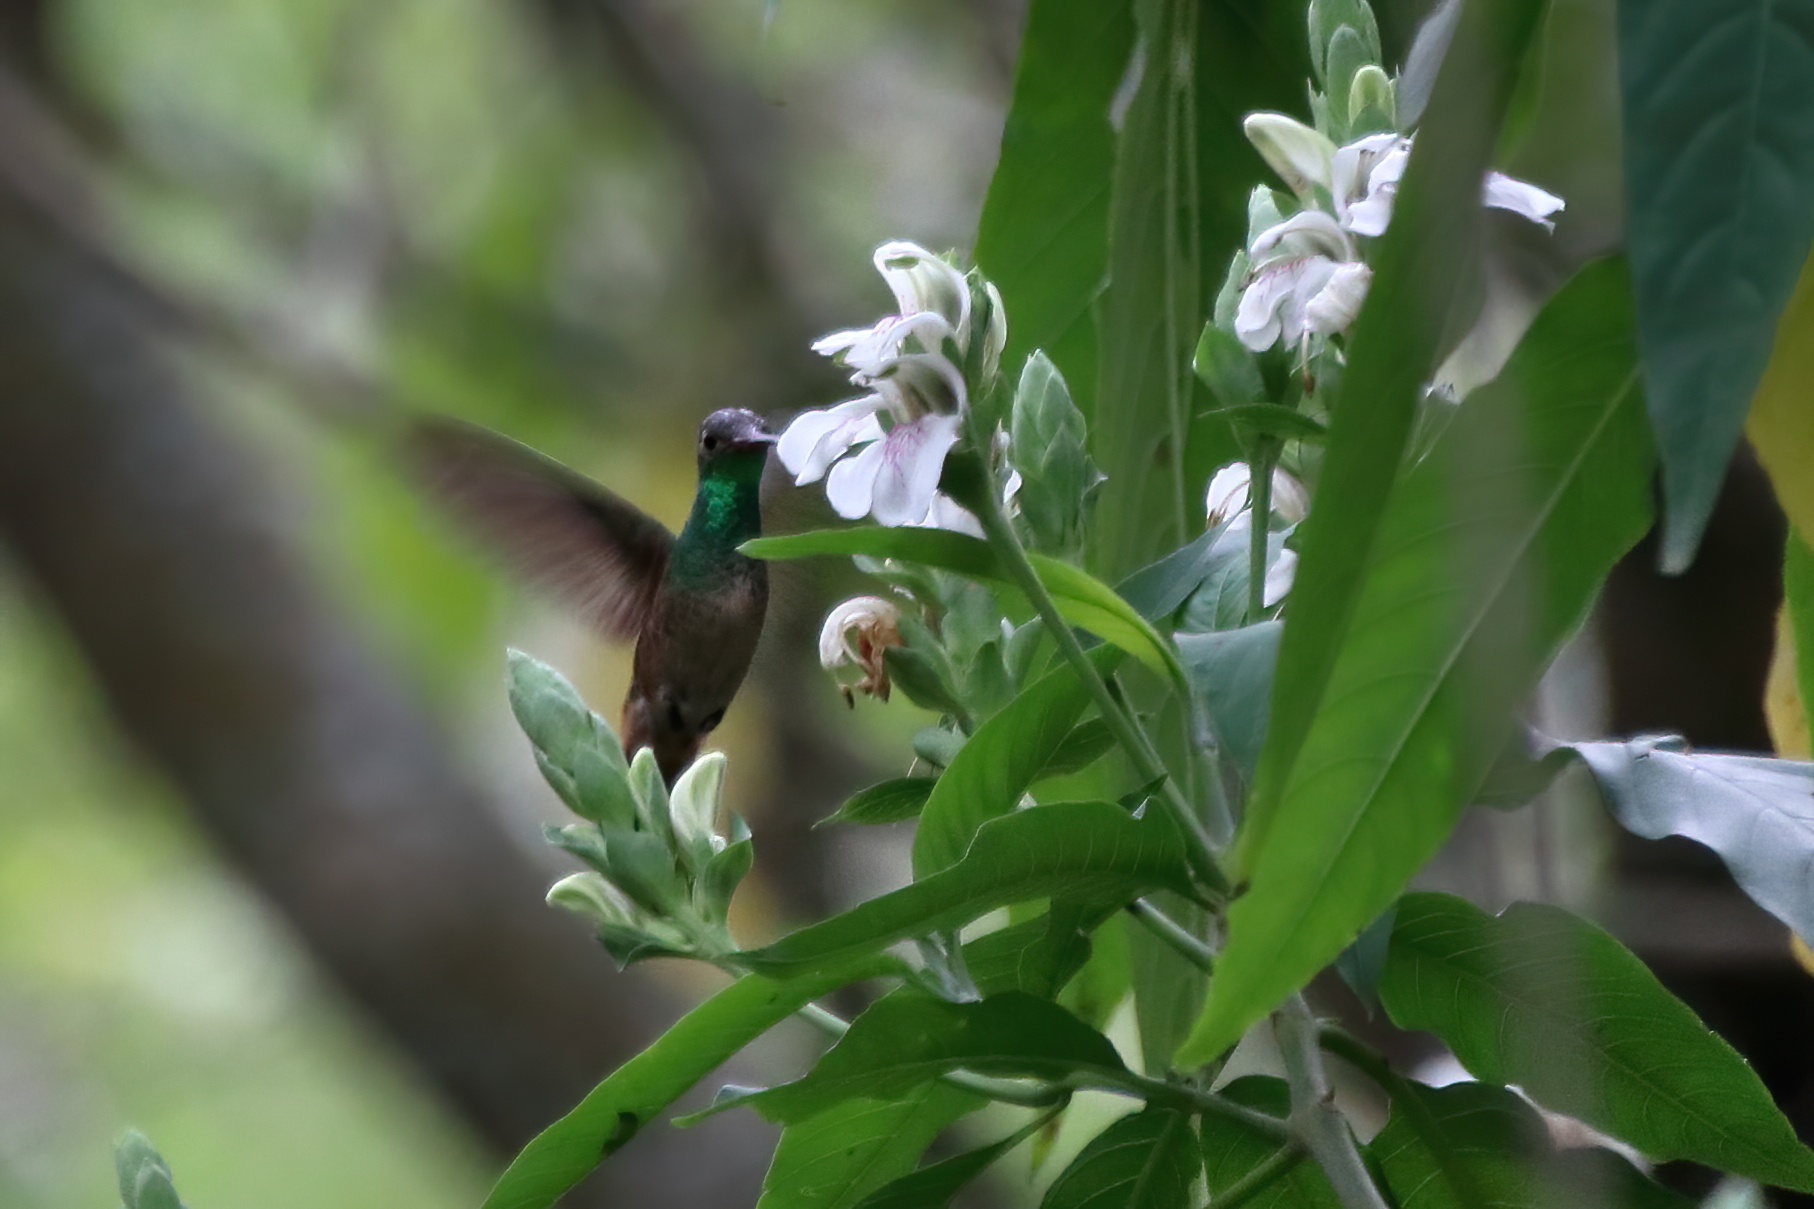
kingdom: Animalia
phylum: Chordata
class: Aves
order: Apodiformes
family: Trochilidae
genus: Amazilia
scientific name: Amazilia yucatanensis
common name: Buff-bellied hummingbird
